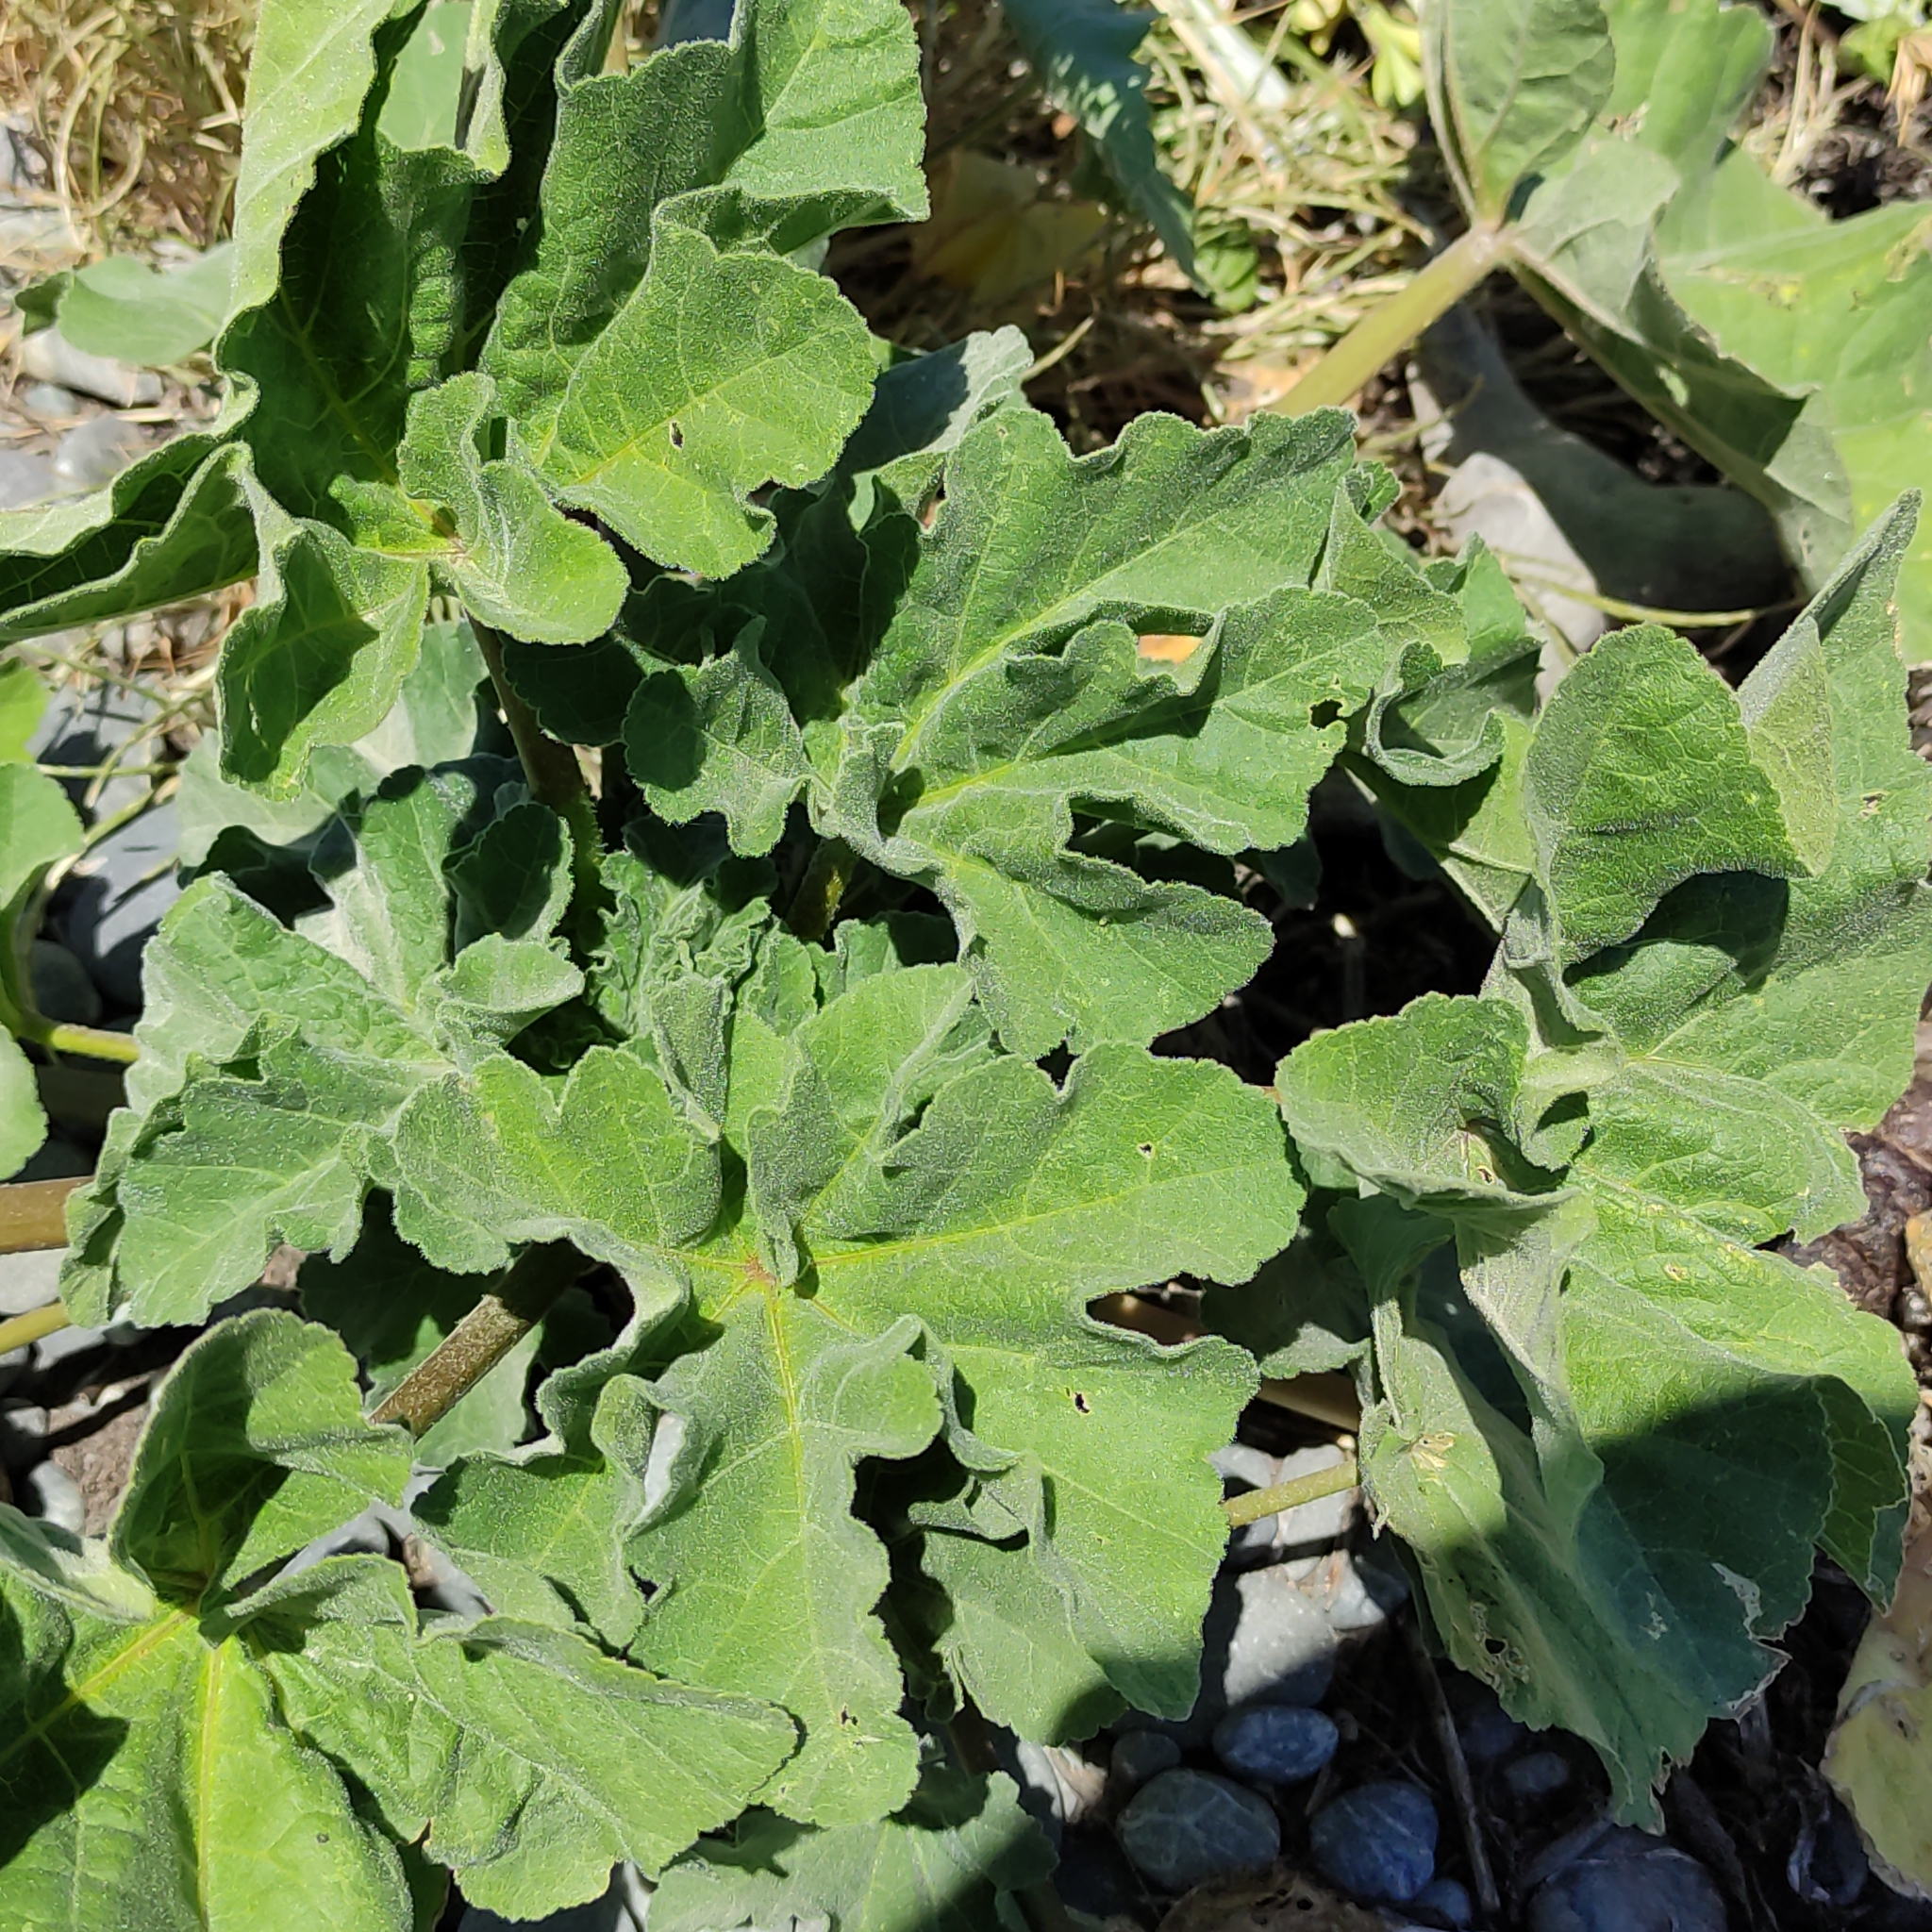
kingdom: Plantae
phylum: Tracheophyta
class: Magnoliopsida
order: Malvales
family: Malvaceae
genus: Malva
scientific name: Malva arborea
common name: Tree mallow
